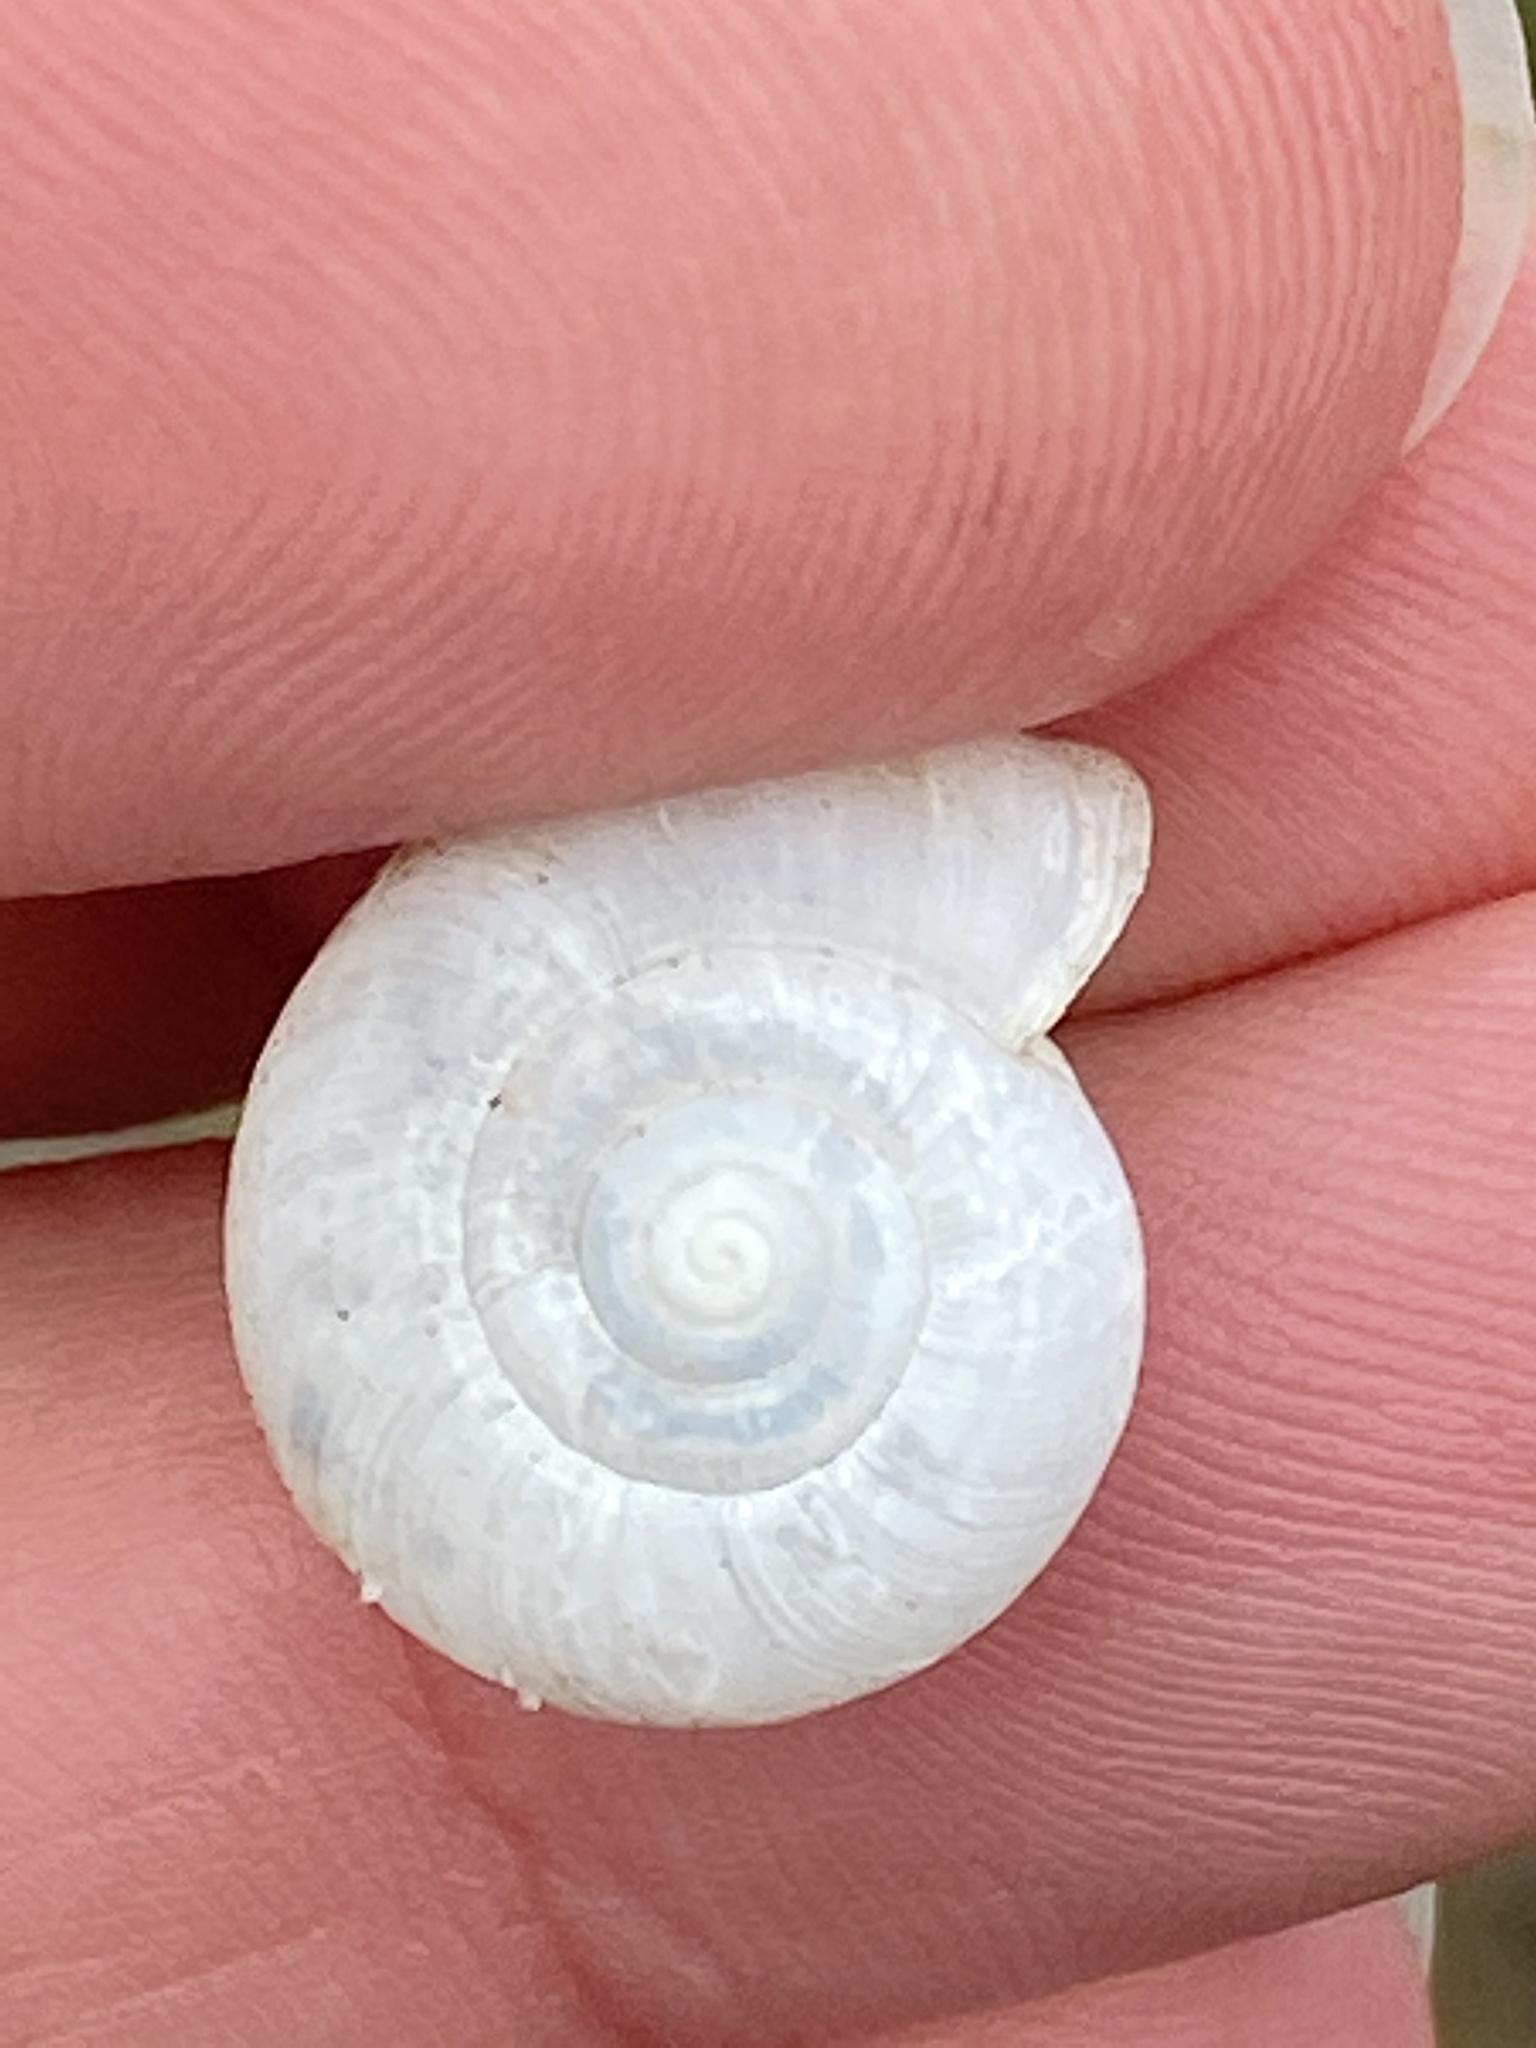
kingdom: Animalia
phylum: Mollusca
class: Gastropoda
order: Stylommatophora
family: Haplotrematidae
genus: Haplotrema
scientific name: Haplotrema minimum
